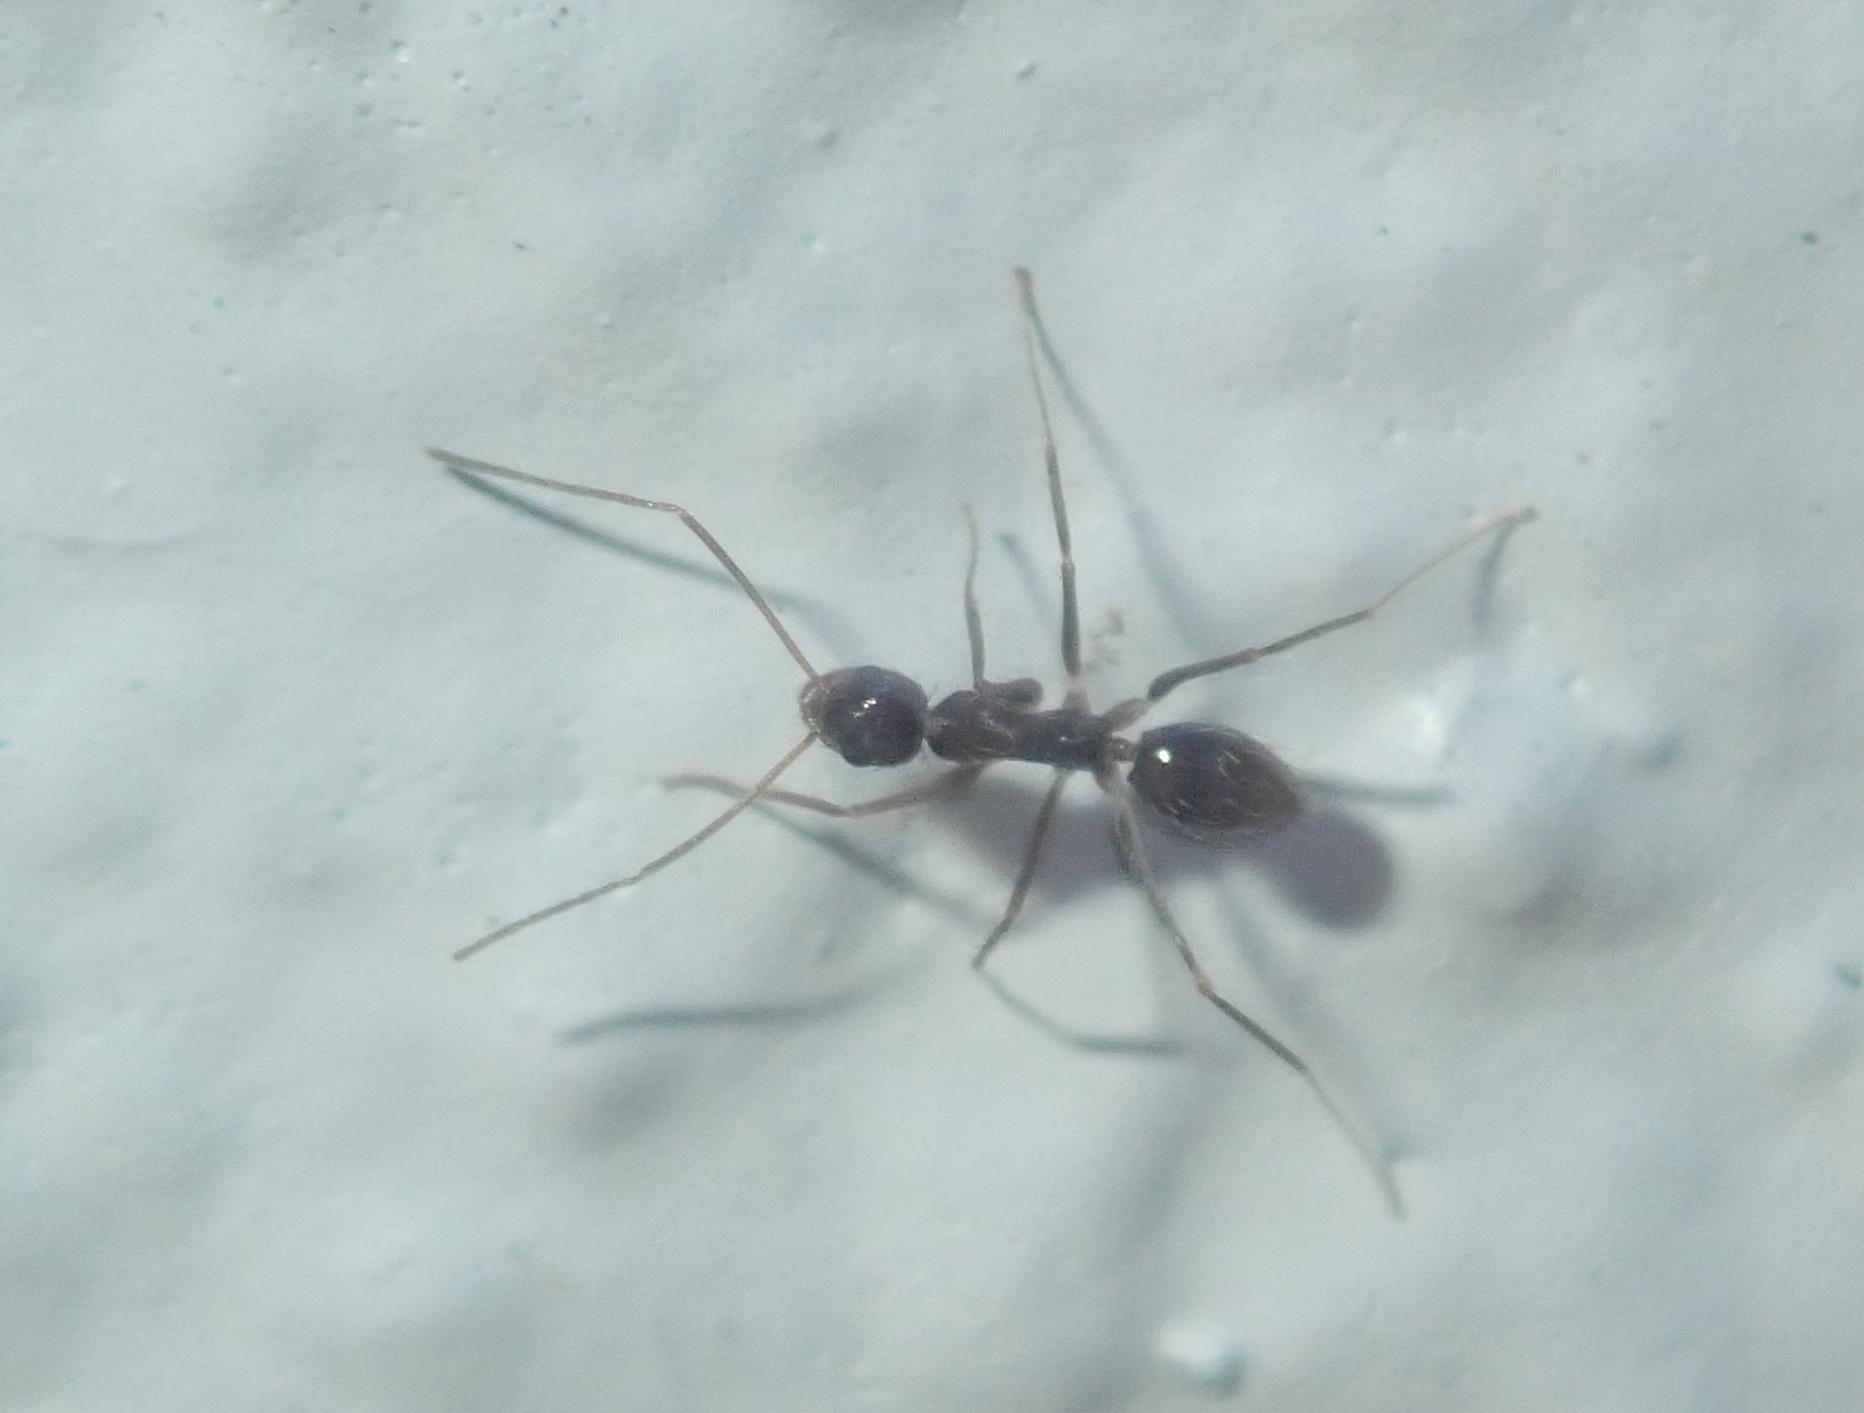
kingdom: Animalia
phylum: Arthropoda
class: Insecta
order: Hymenoptera
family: Formicidae
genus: Paratrechina
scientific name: Paratrechina longicornis
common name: Longhorned crazy ant
